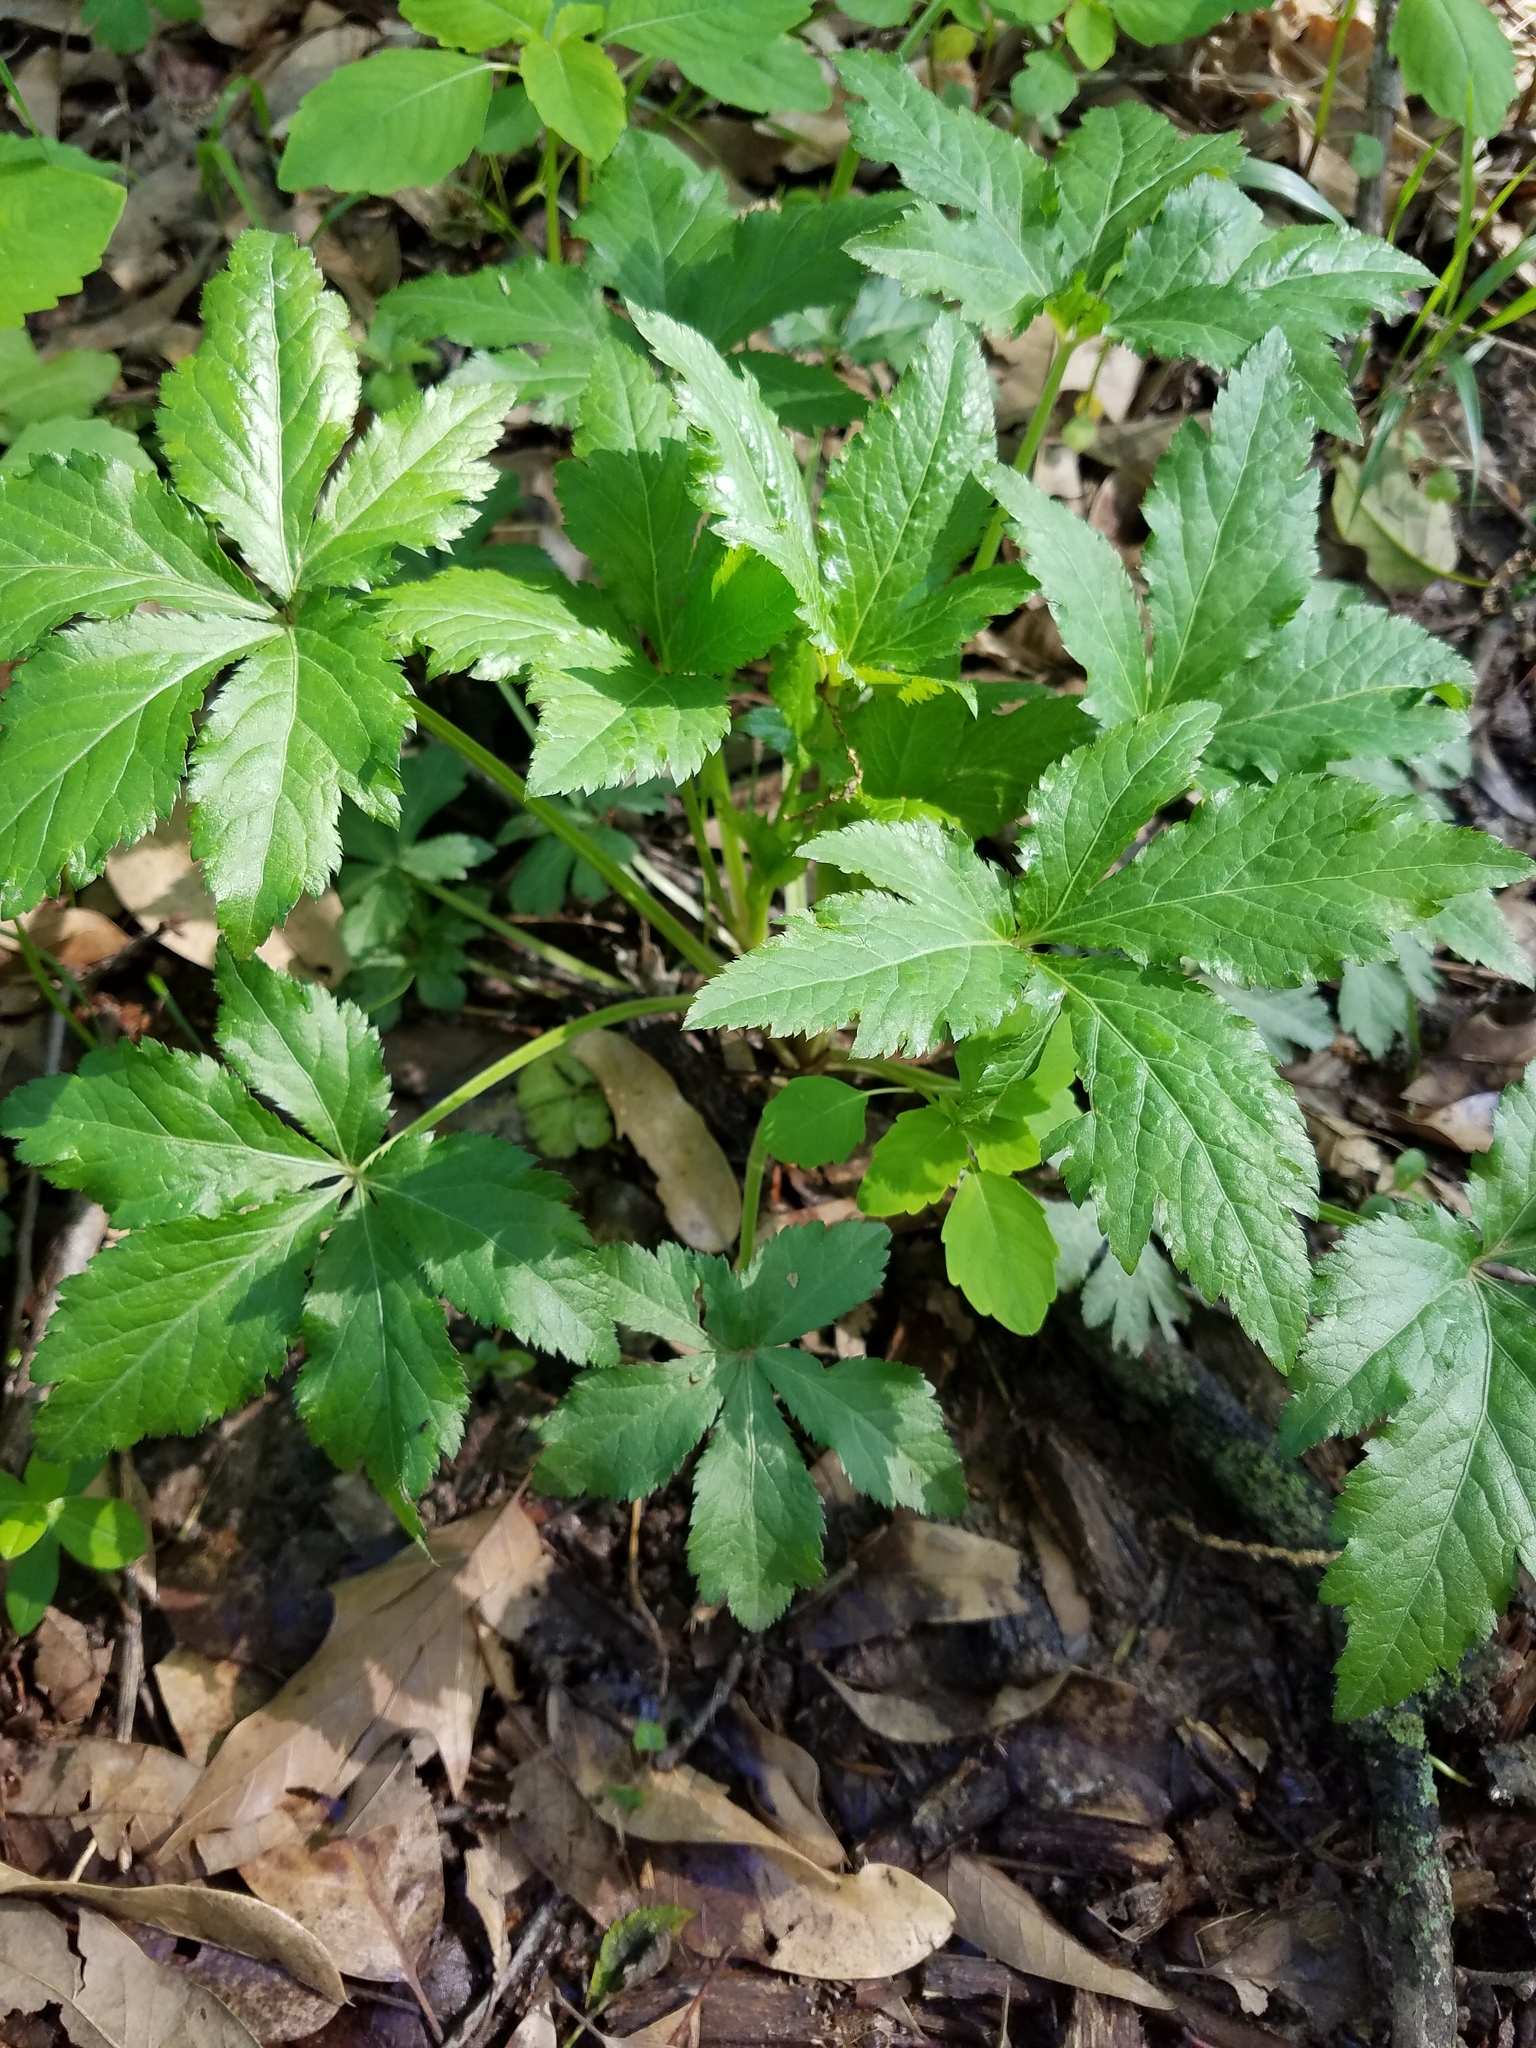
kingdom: Plantae
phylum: Tracheophyta
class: Magnoliopsida
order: Apiales
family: Apiaceae
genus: Sanicula
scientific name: Sanicula canadensis
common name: Canada sanicle
